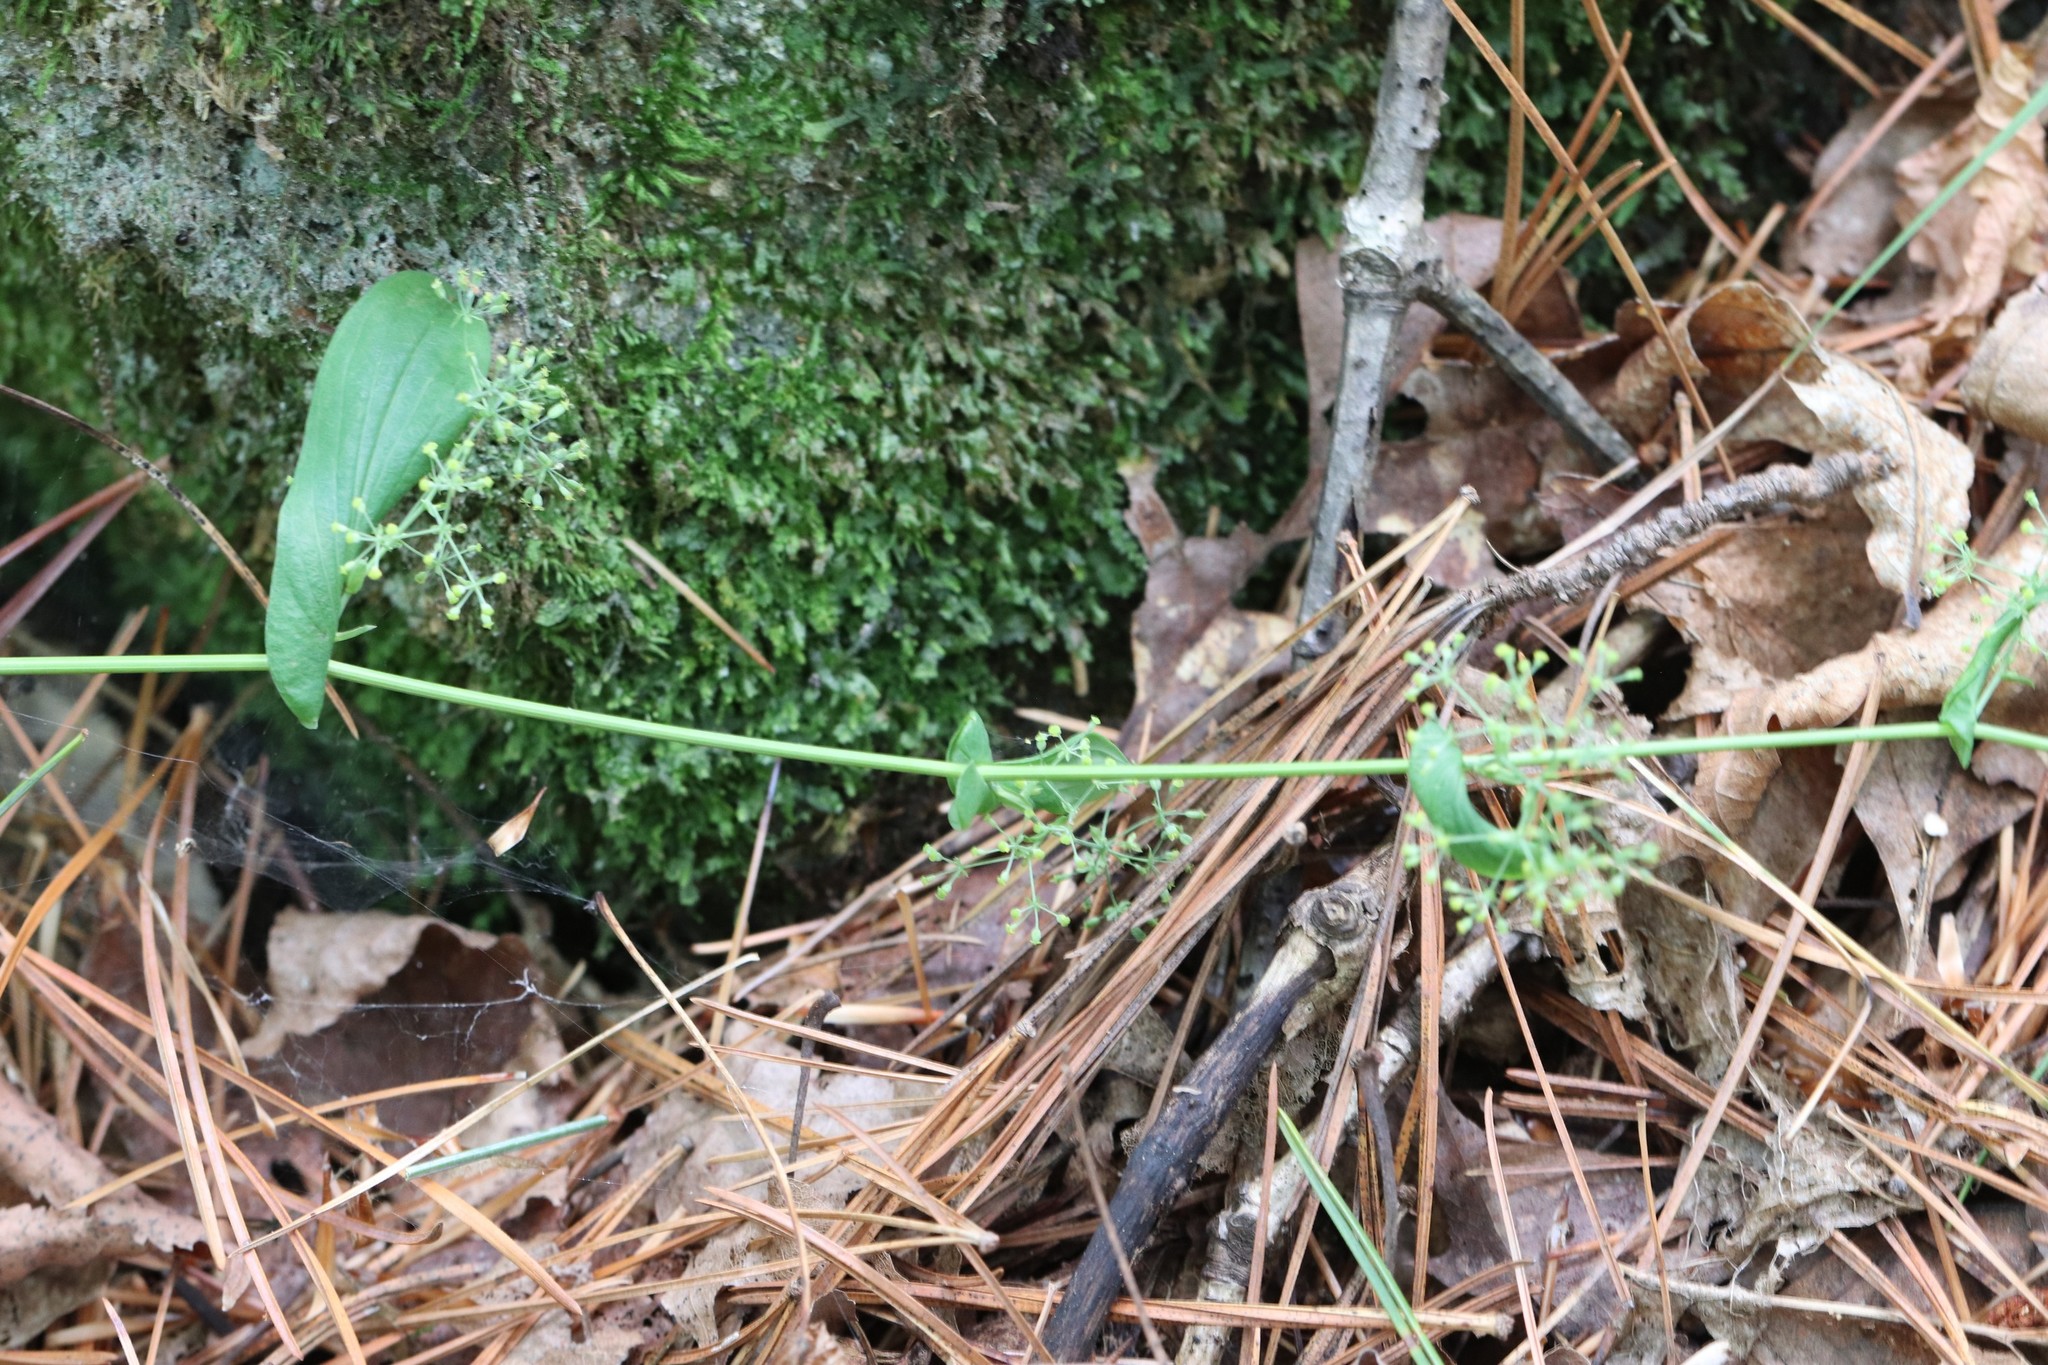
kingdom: Plantae
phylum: Tracheophyta
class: Magnoliopsida
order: Apiales
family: Apiaceae
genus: Bupleurum
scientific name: Bupleurum longiradiatum
